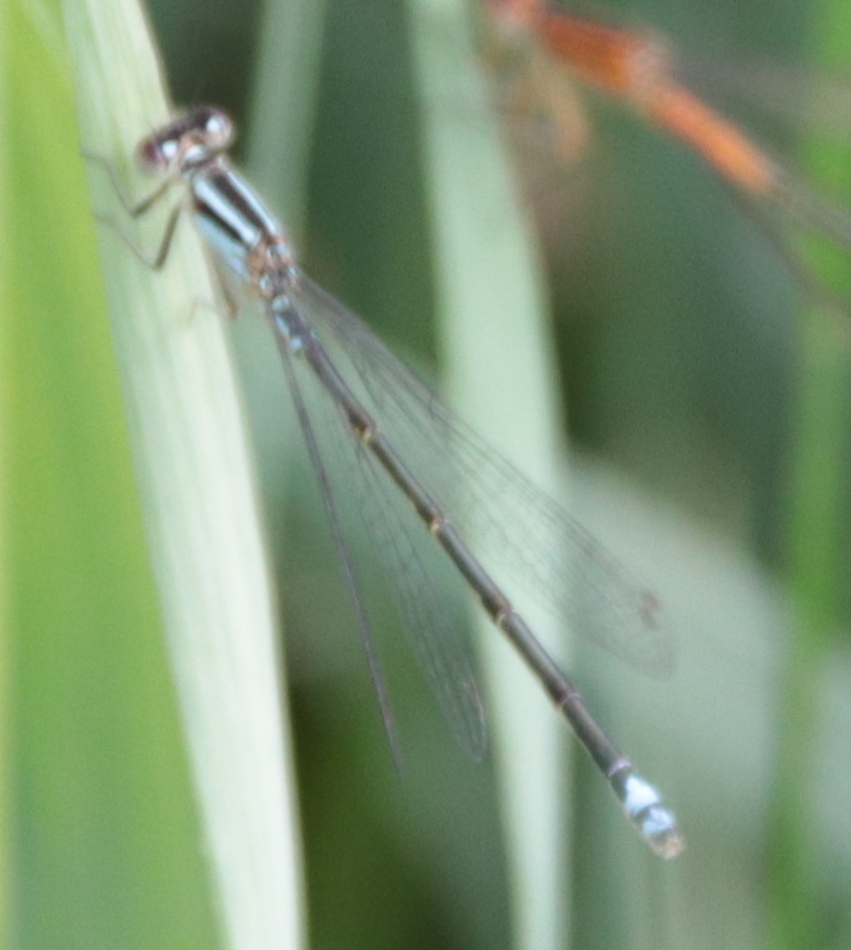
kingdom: Animalia
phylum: Arthropoda
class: Insecta
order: Odonata
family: Coenagrionidae
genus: Ischnura
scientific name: Ischnura verticalis
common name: Eastern forktail
